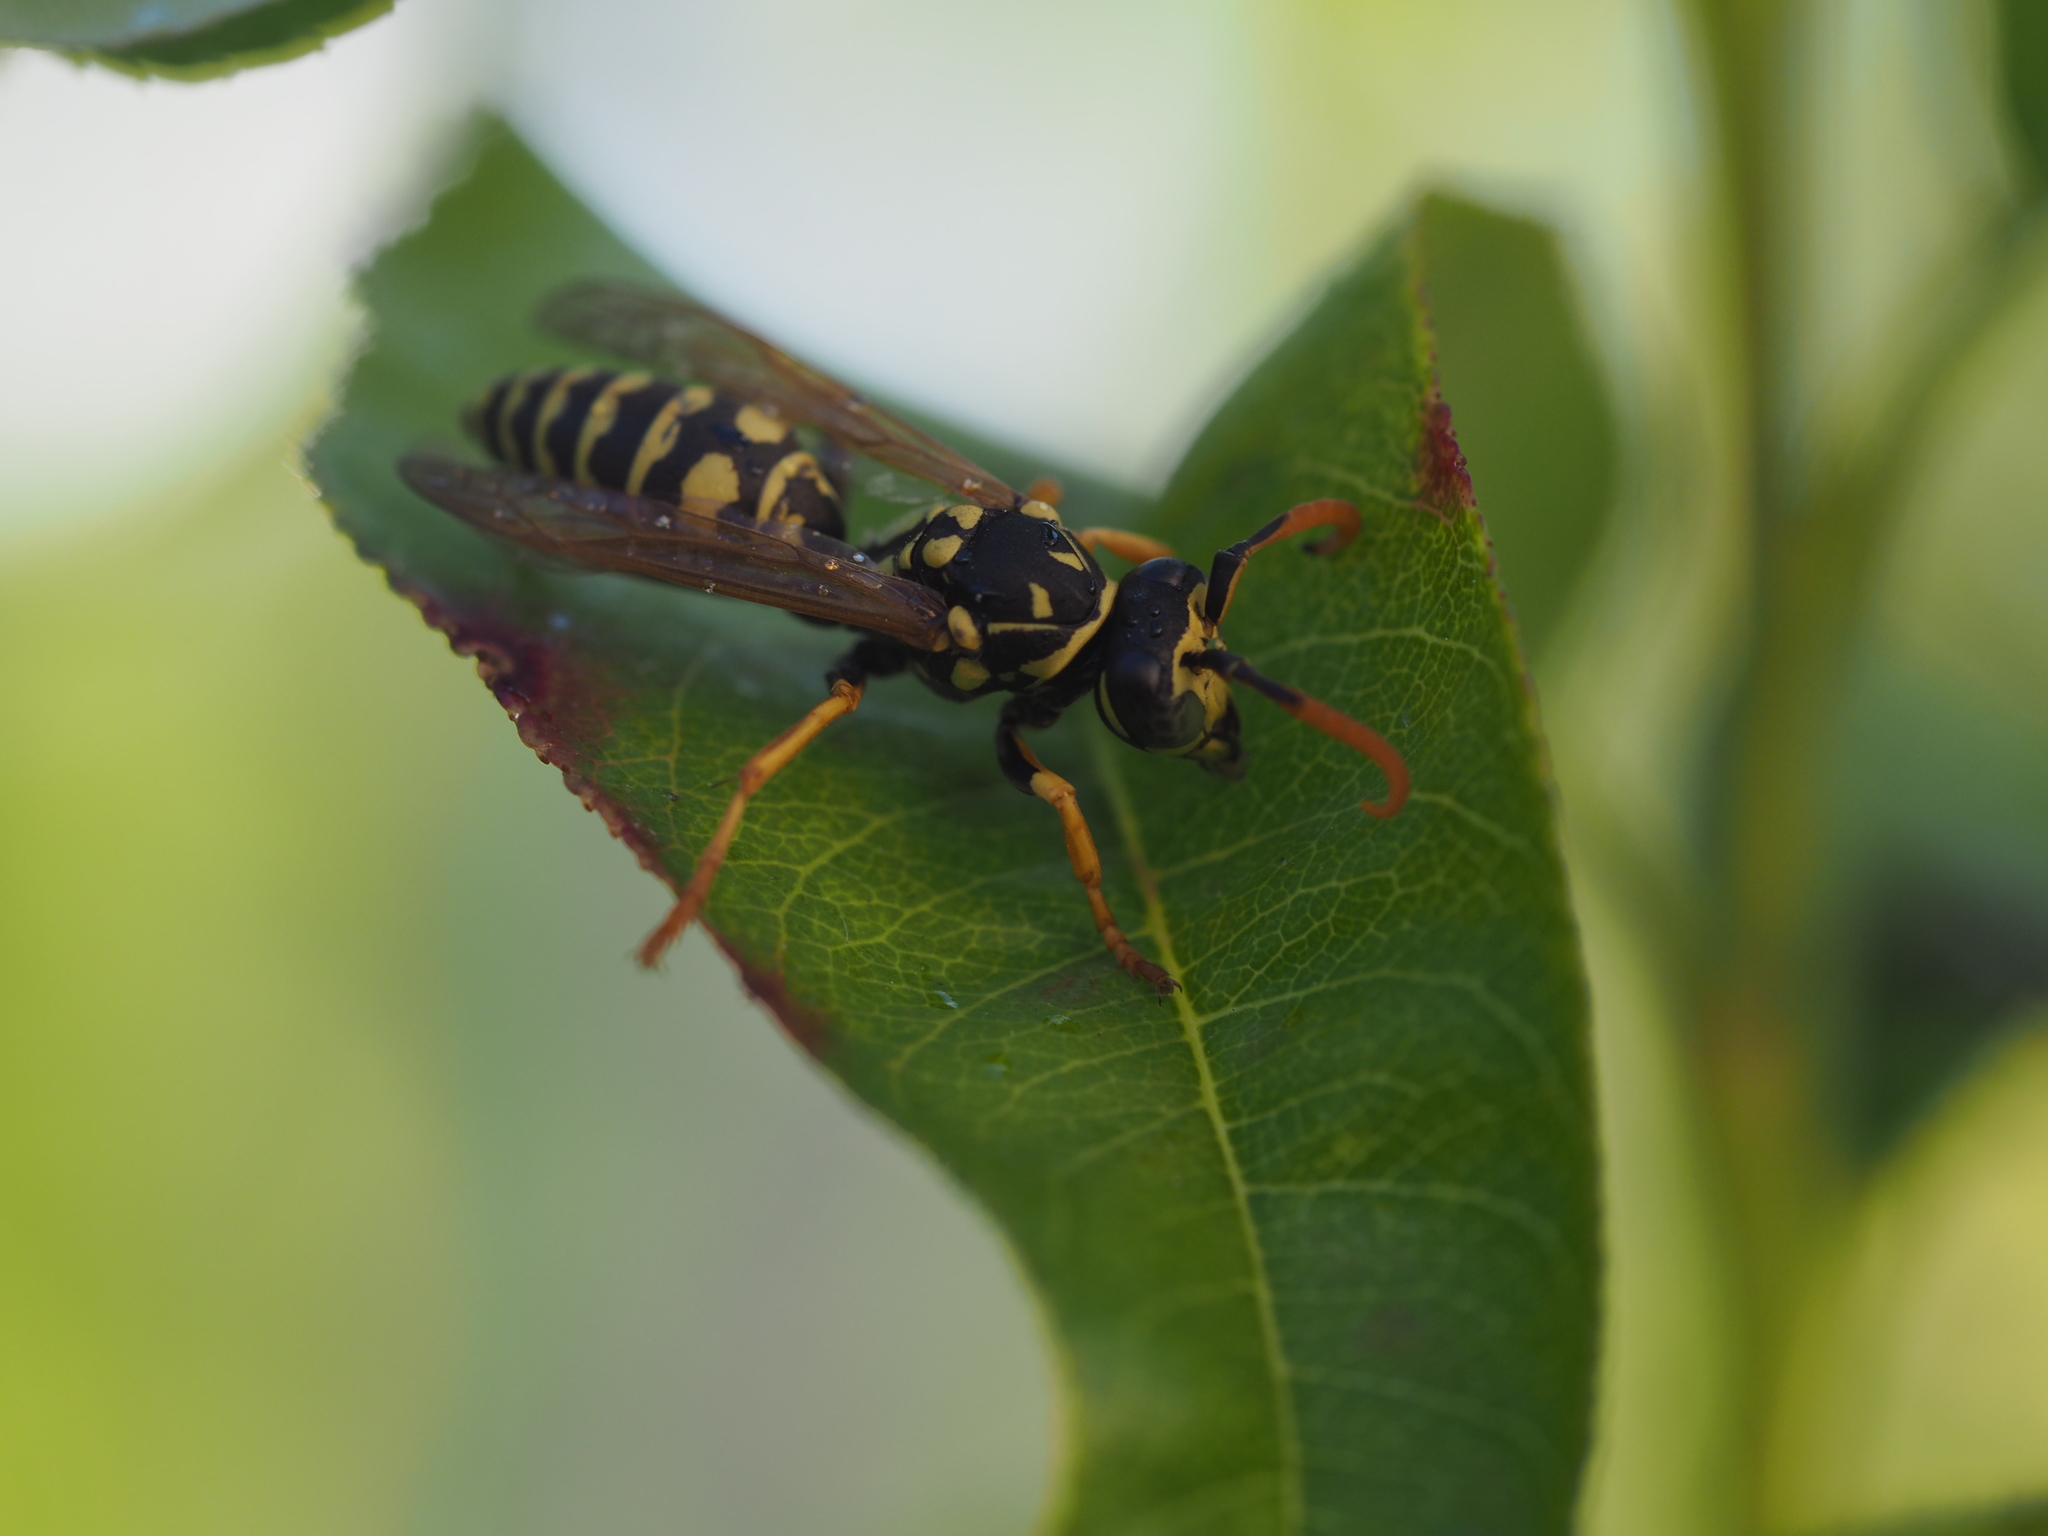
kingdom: Animalia
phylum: Arthropoda
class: Insecta
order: Hymenoptera
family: Eumenidae
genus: Polistes
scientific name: Polistes dominula
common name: Paper wasp
